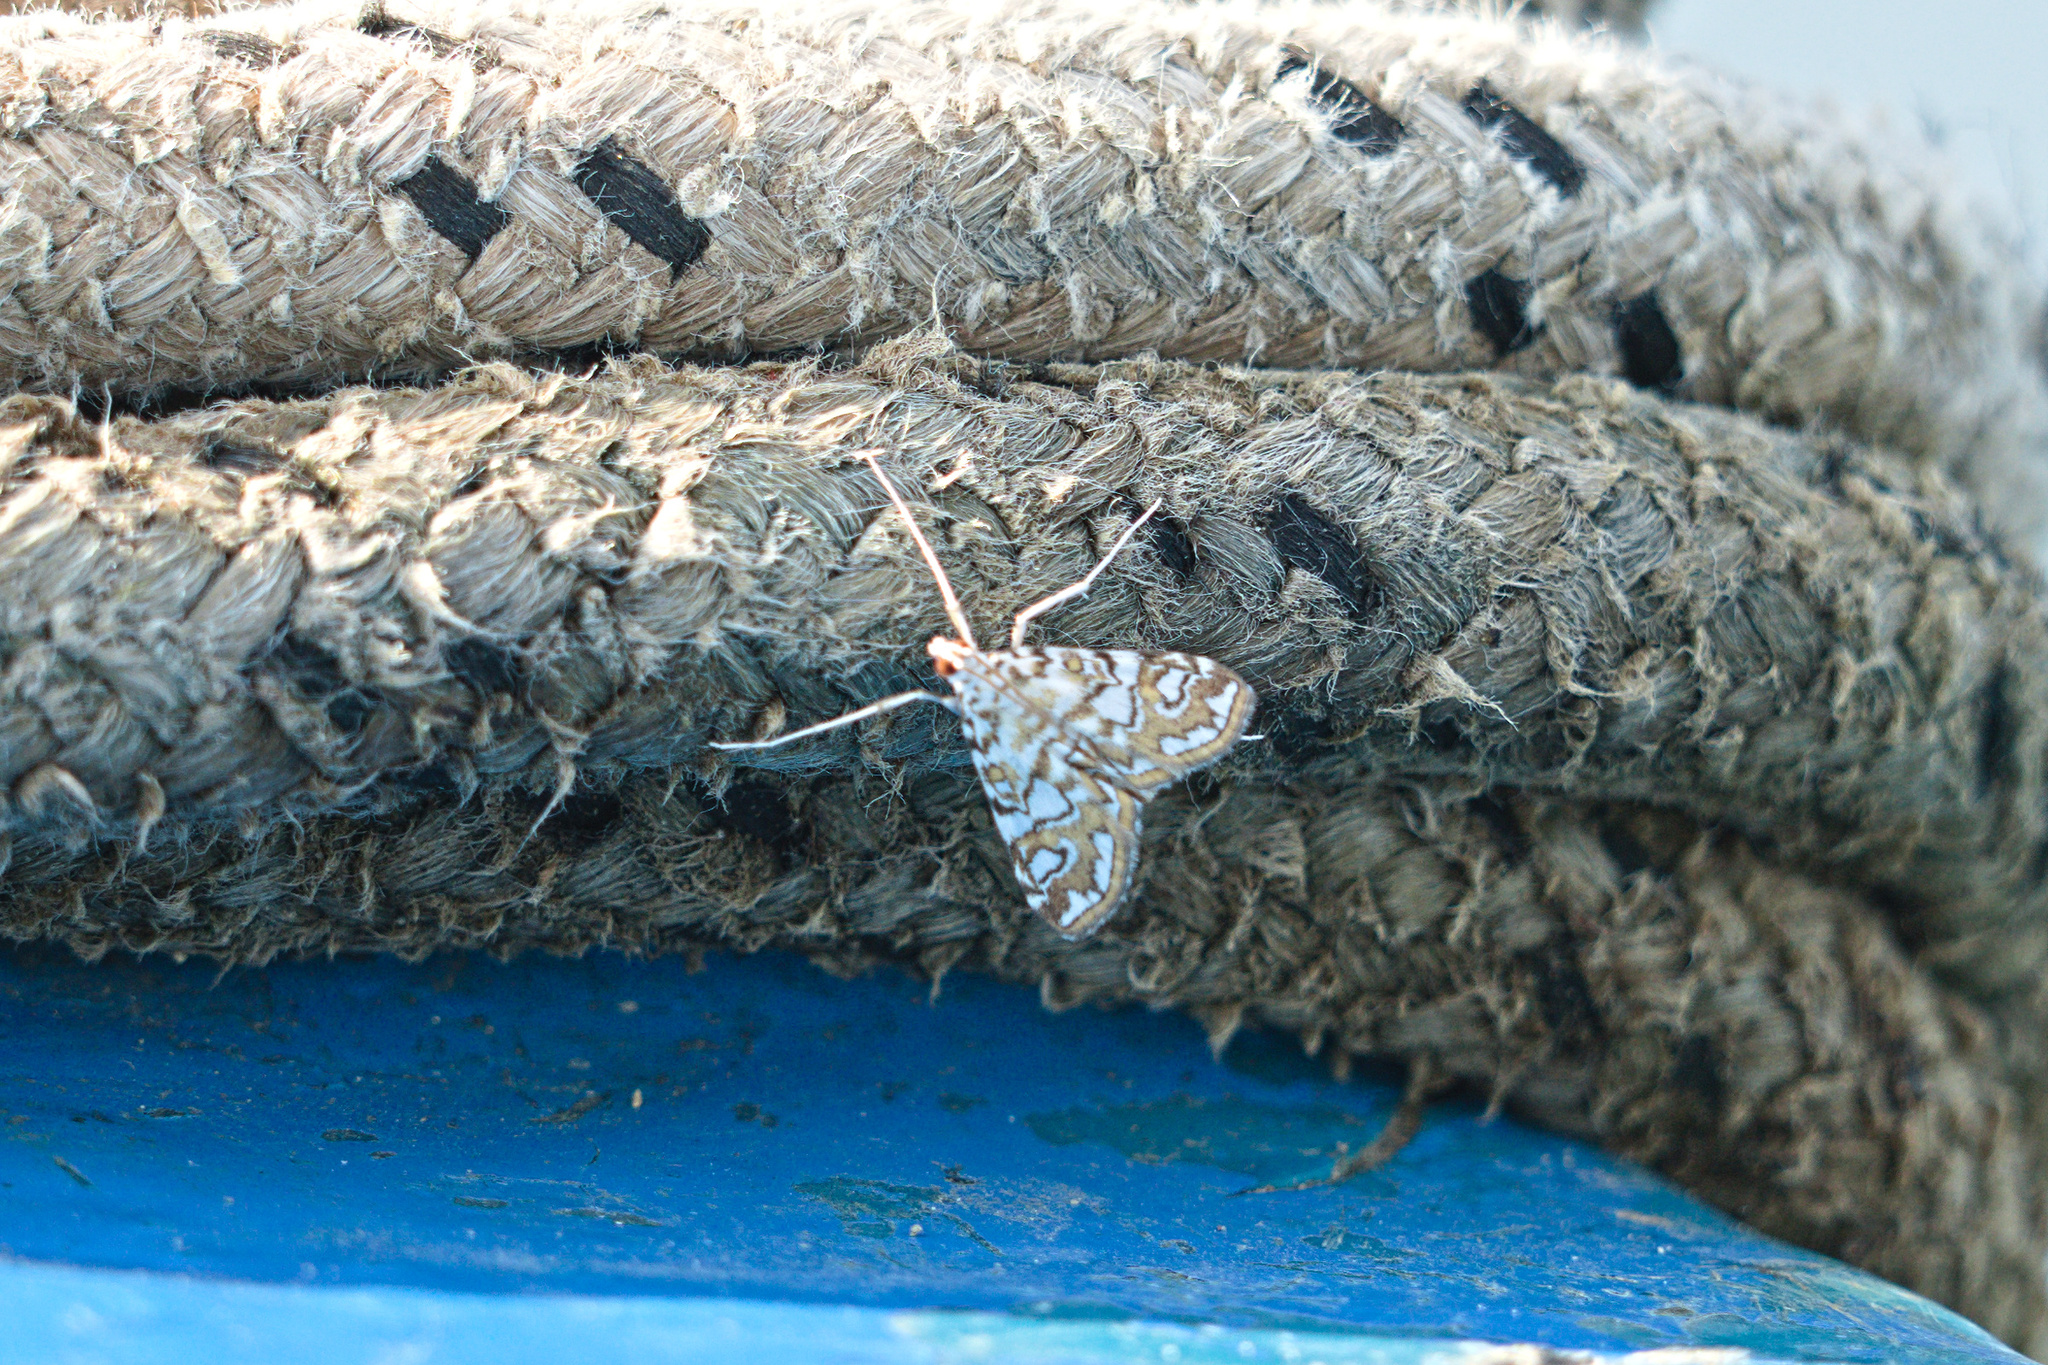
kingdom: Animalia
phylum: Arthropoda
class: Insecta
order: Lepidoptera
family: Crambidae
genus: Elophila
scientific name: Elophila nymphaeata
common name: Brown china-mark
